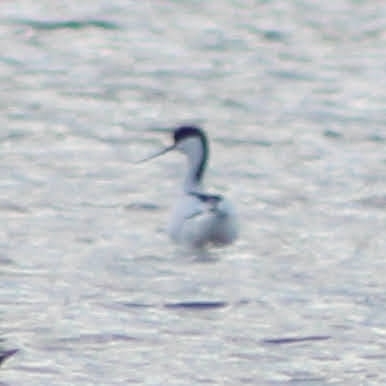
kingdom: Animalia
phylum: Chordata
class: Aves
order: Charadriiformes
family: Recurvirostridae
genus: Recurvirostra
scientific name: Recurvirostra avosetta
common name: Pied avocet
